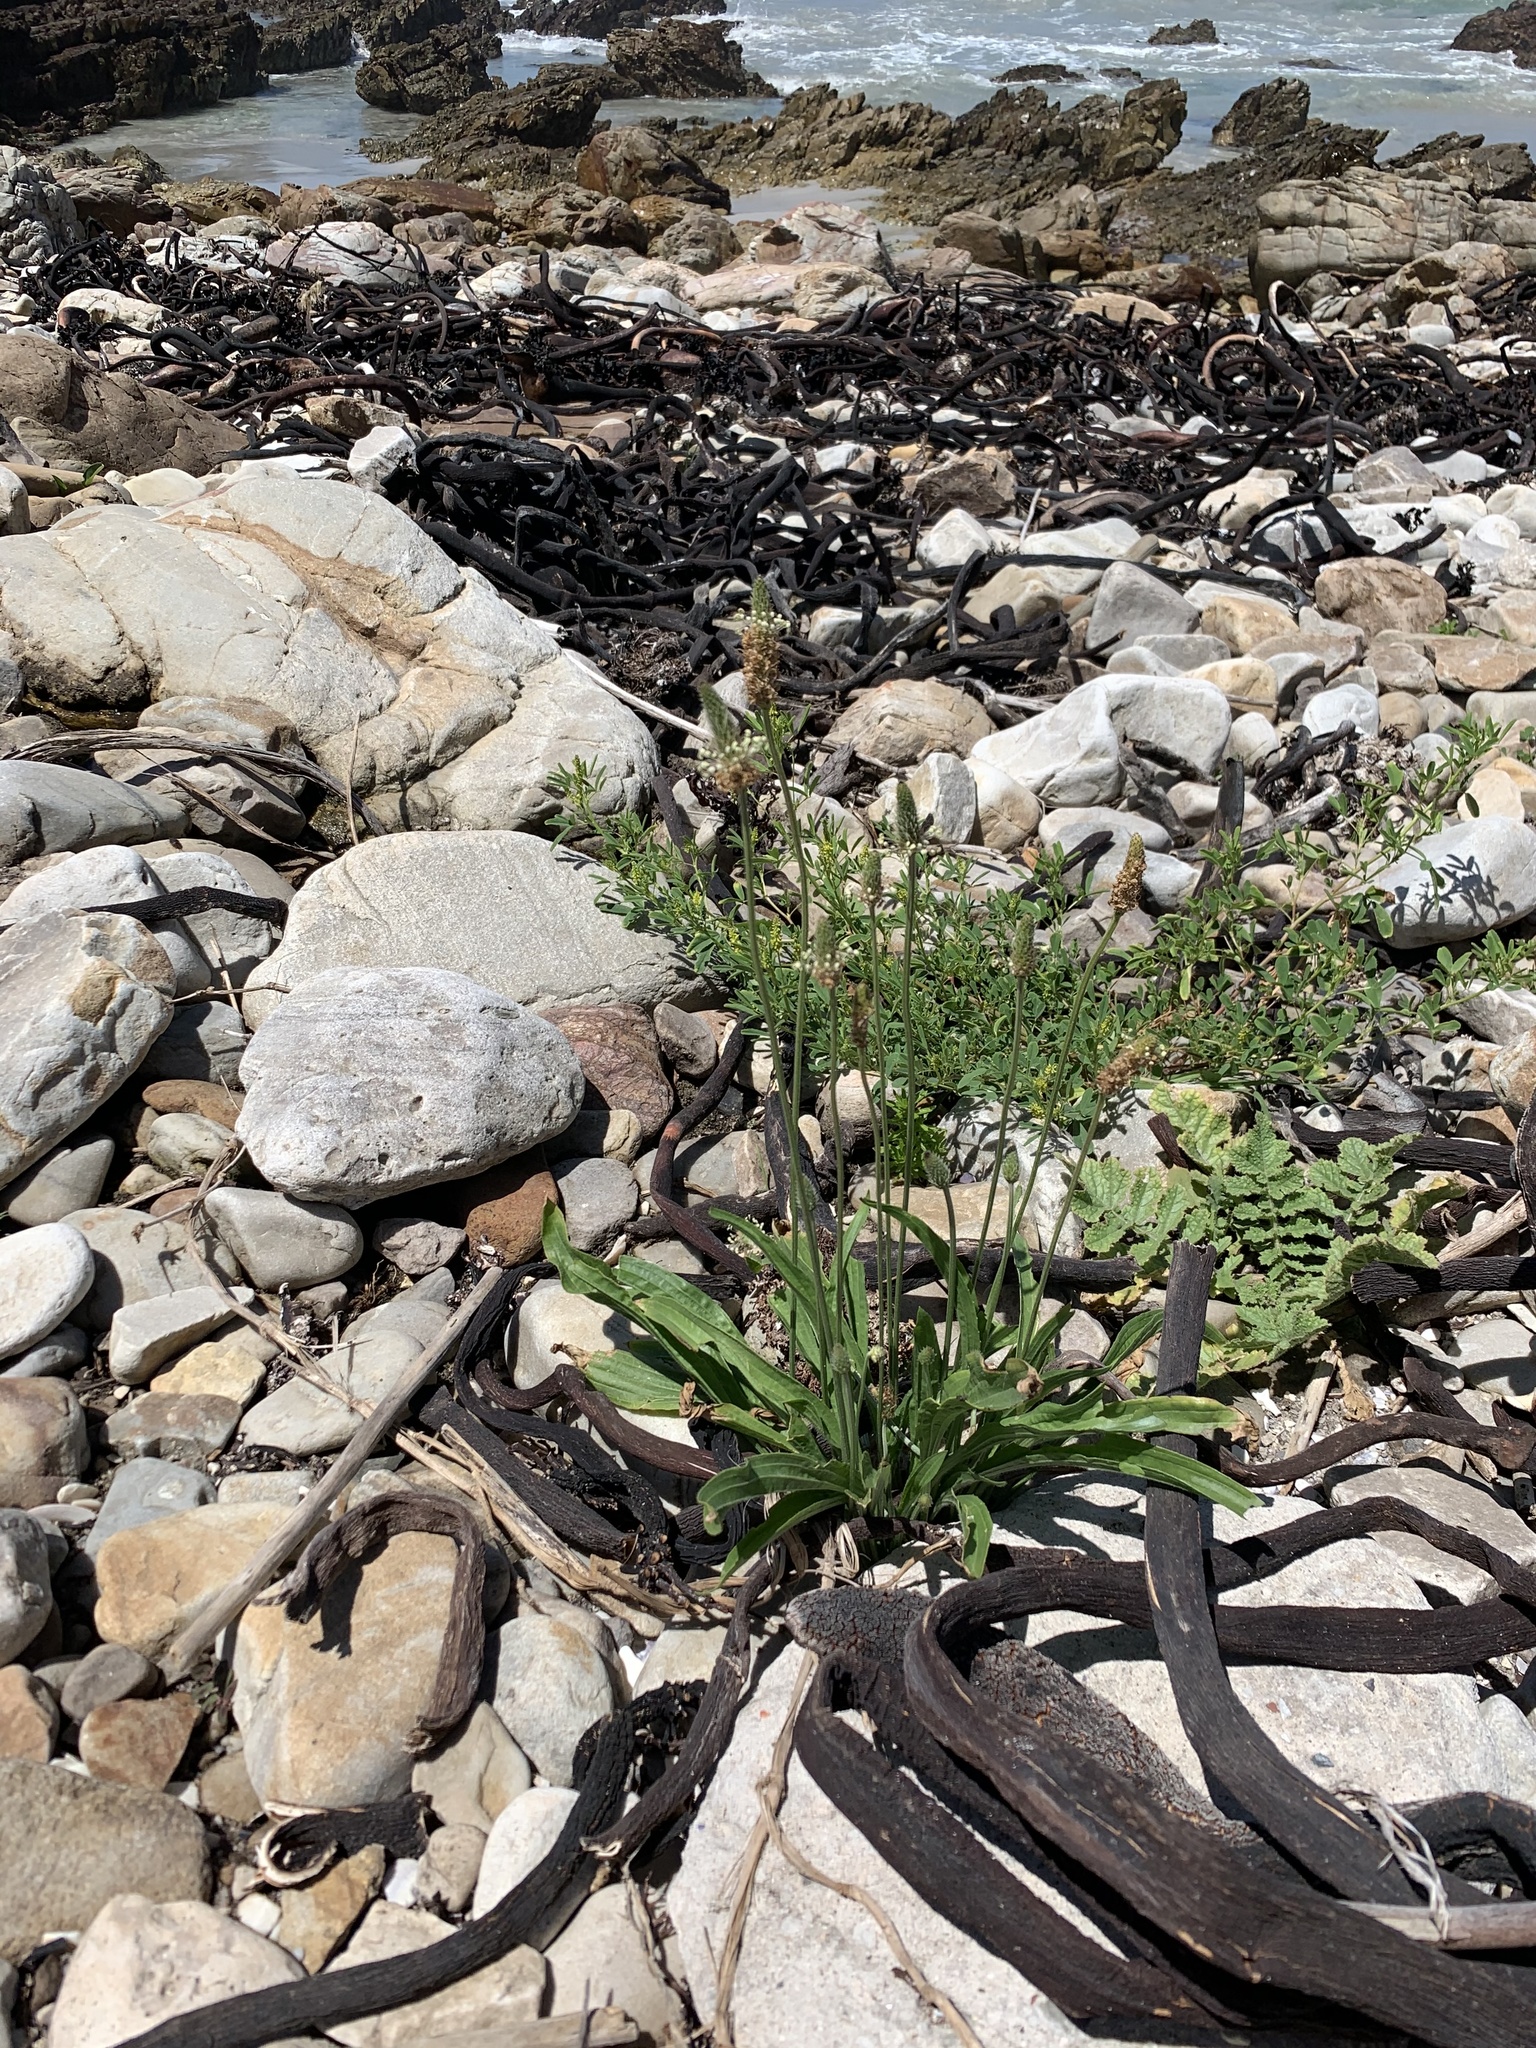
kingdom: Plantae
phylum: Tracheophyta
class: Magnoliopsida
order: Fabales
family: Fabaceae
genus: Melilotus
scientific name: Melilotus indicus
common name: Small melilot
